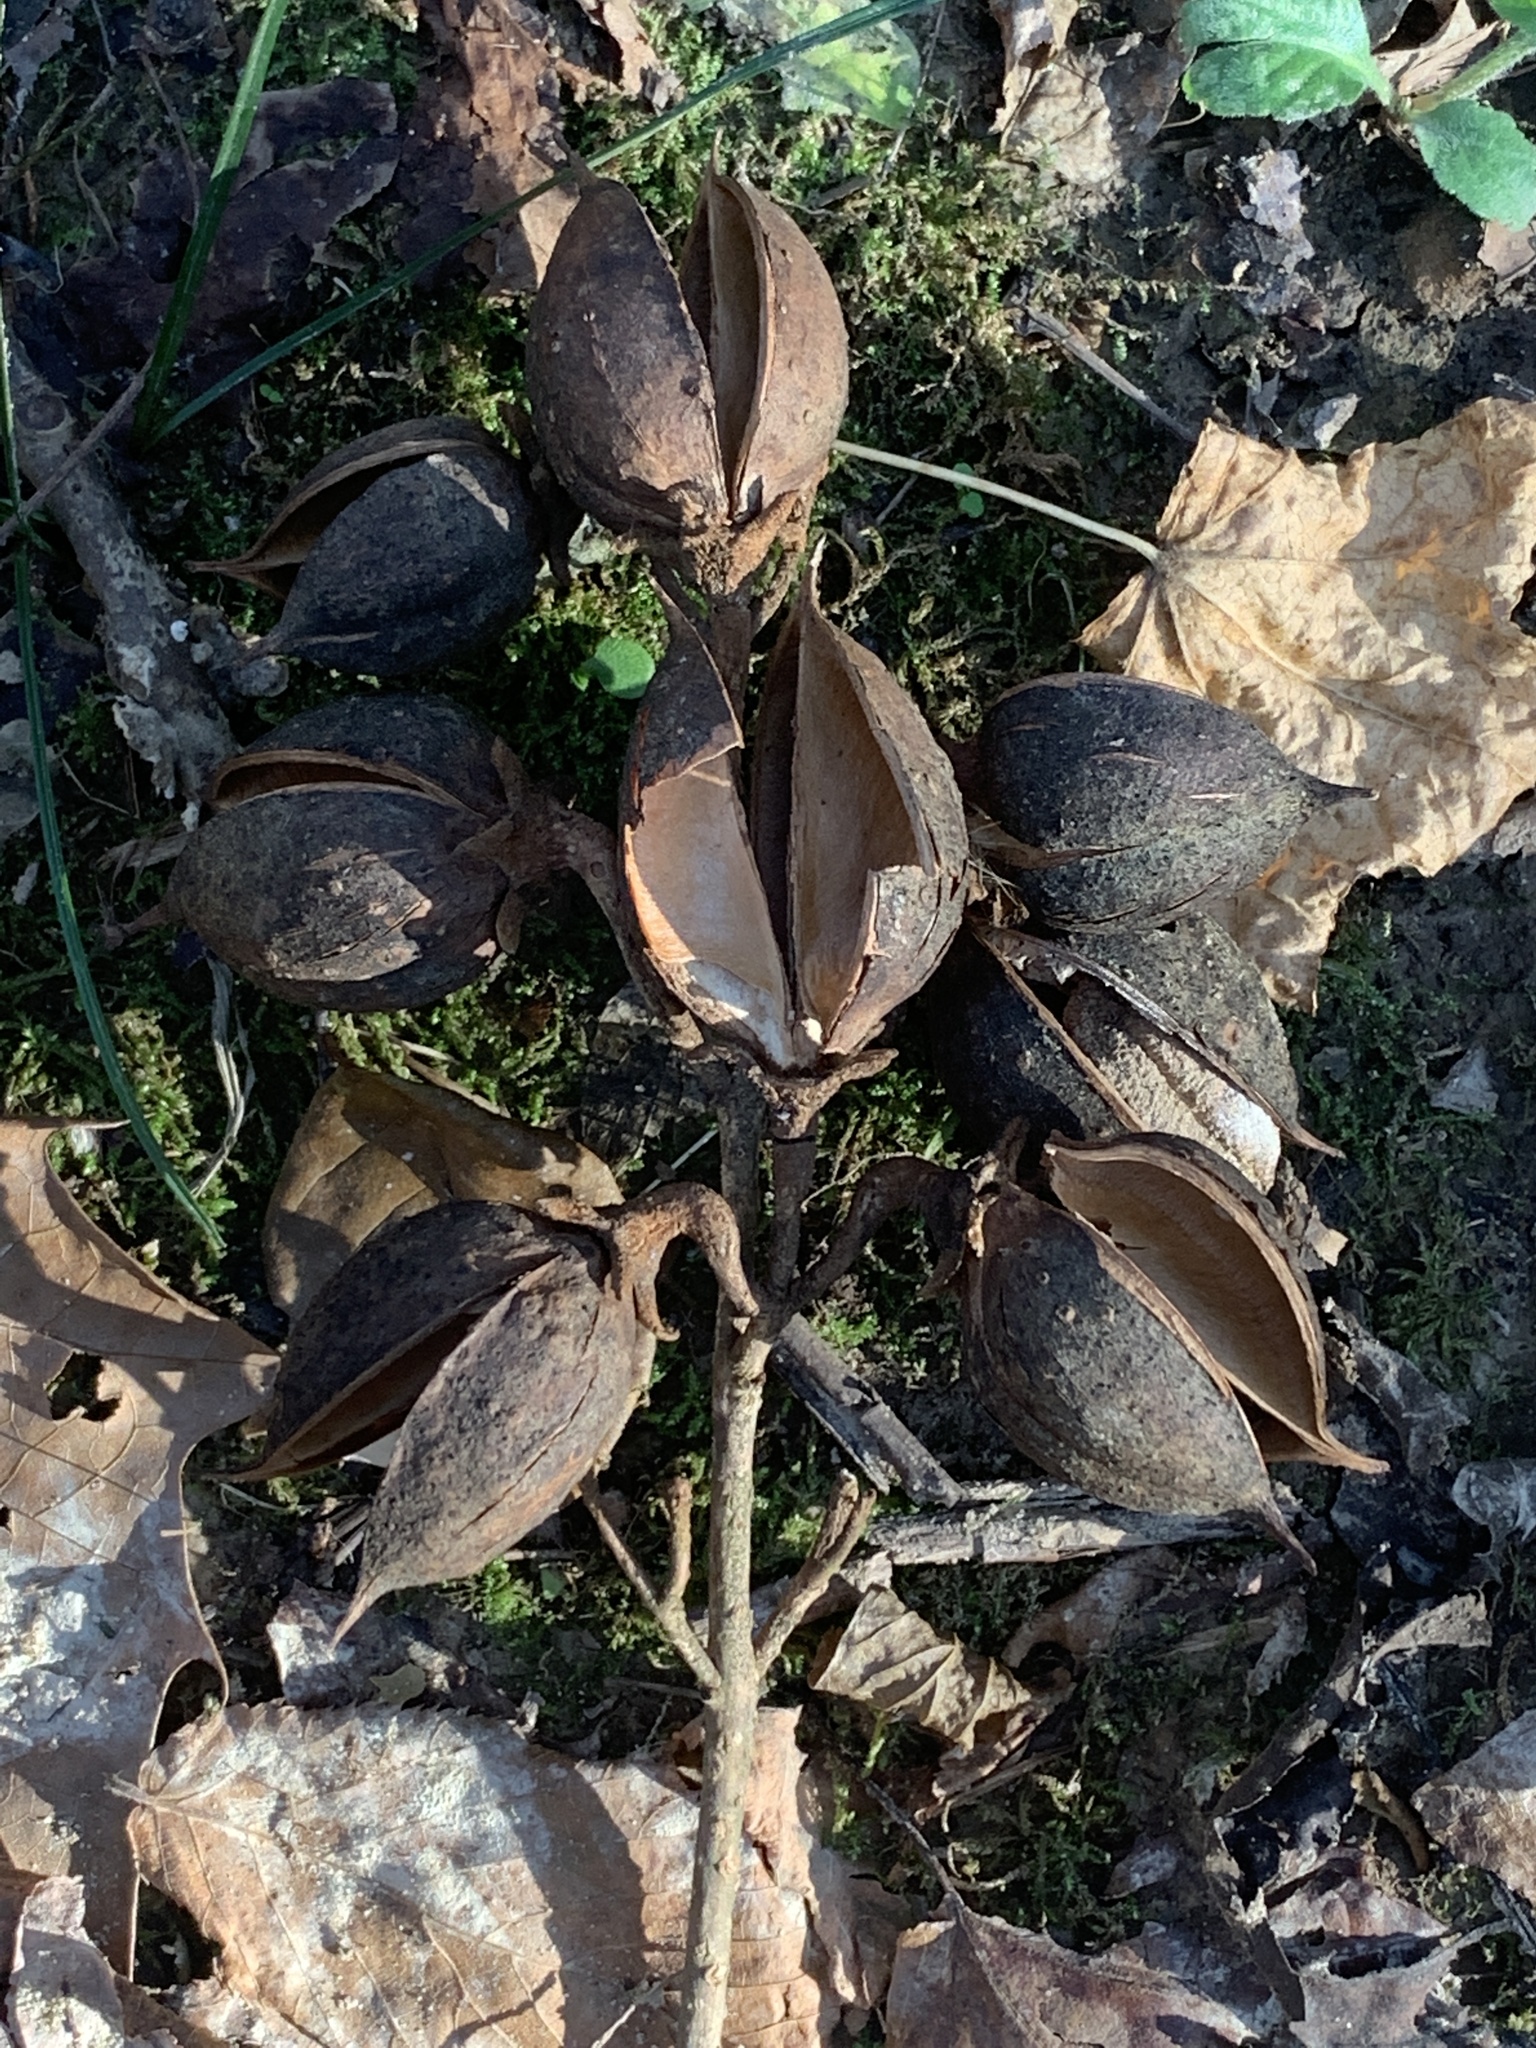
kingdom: Plantae
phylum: Tracheophyta
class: Magnoliopsida
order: Lamiales
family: Paulowniaceae
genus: Paulownia
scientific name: Paulownia tomentosa
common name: Foxglove-tree
